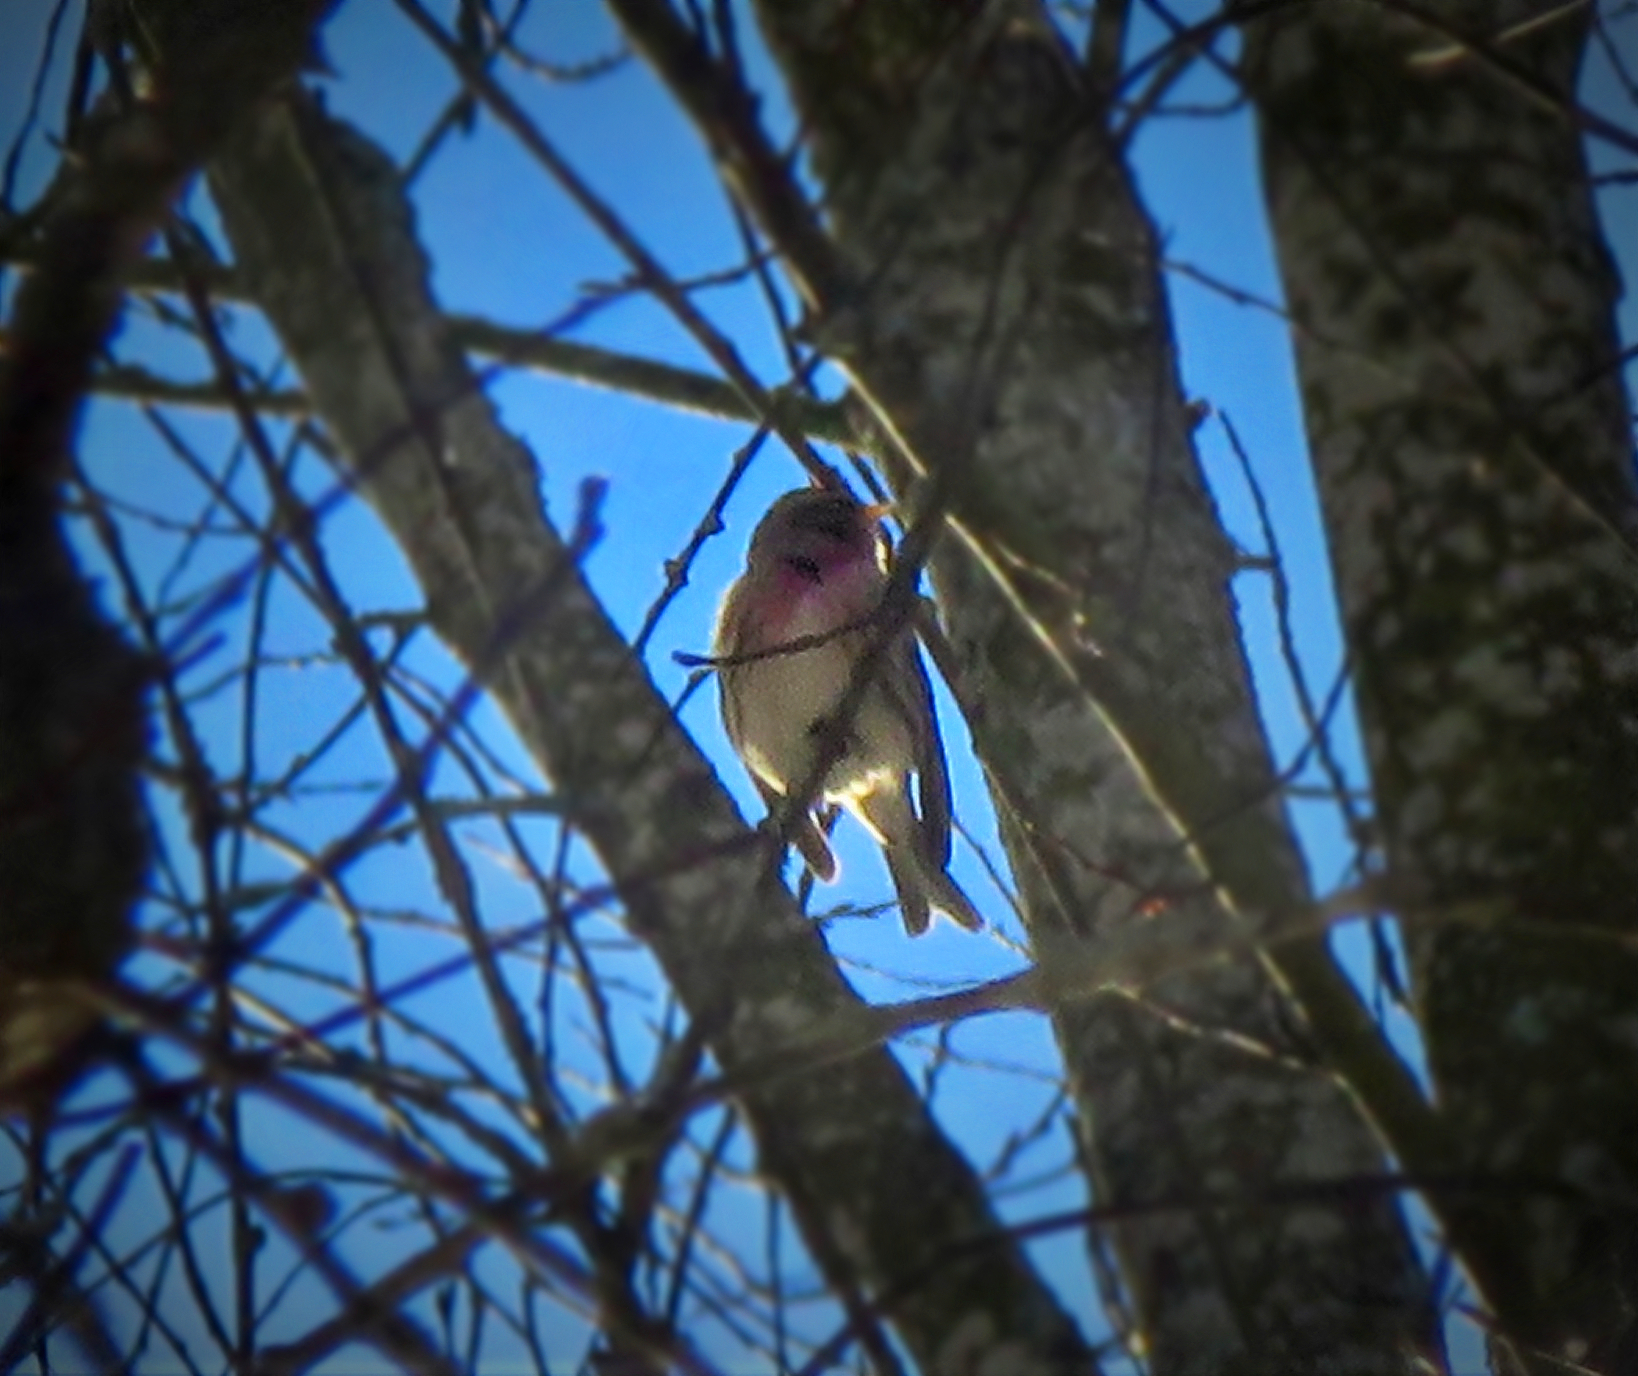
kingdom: Animalia
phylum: Chordata
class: Aves
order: Passeriformes
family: Fringillidae
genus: Acanthis
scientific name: Acanthis flammea
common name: Common redpoll
